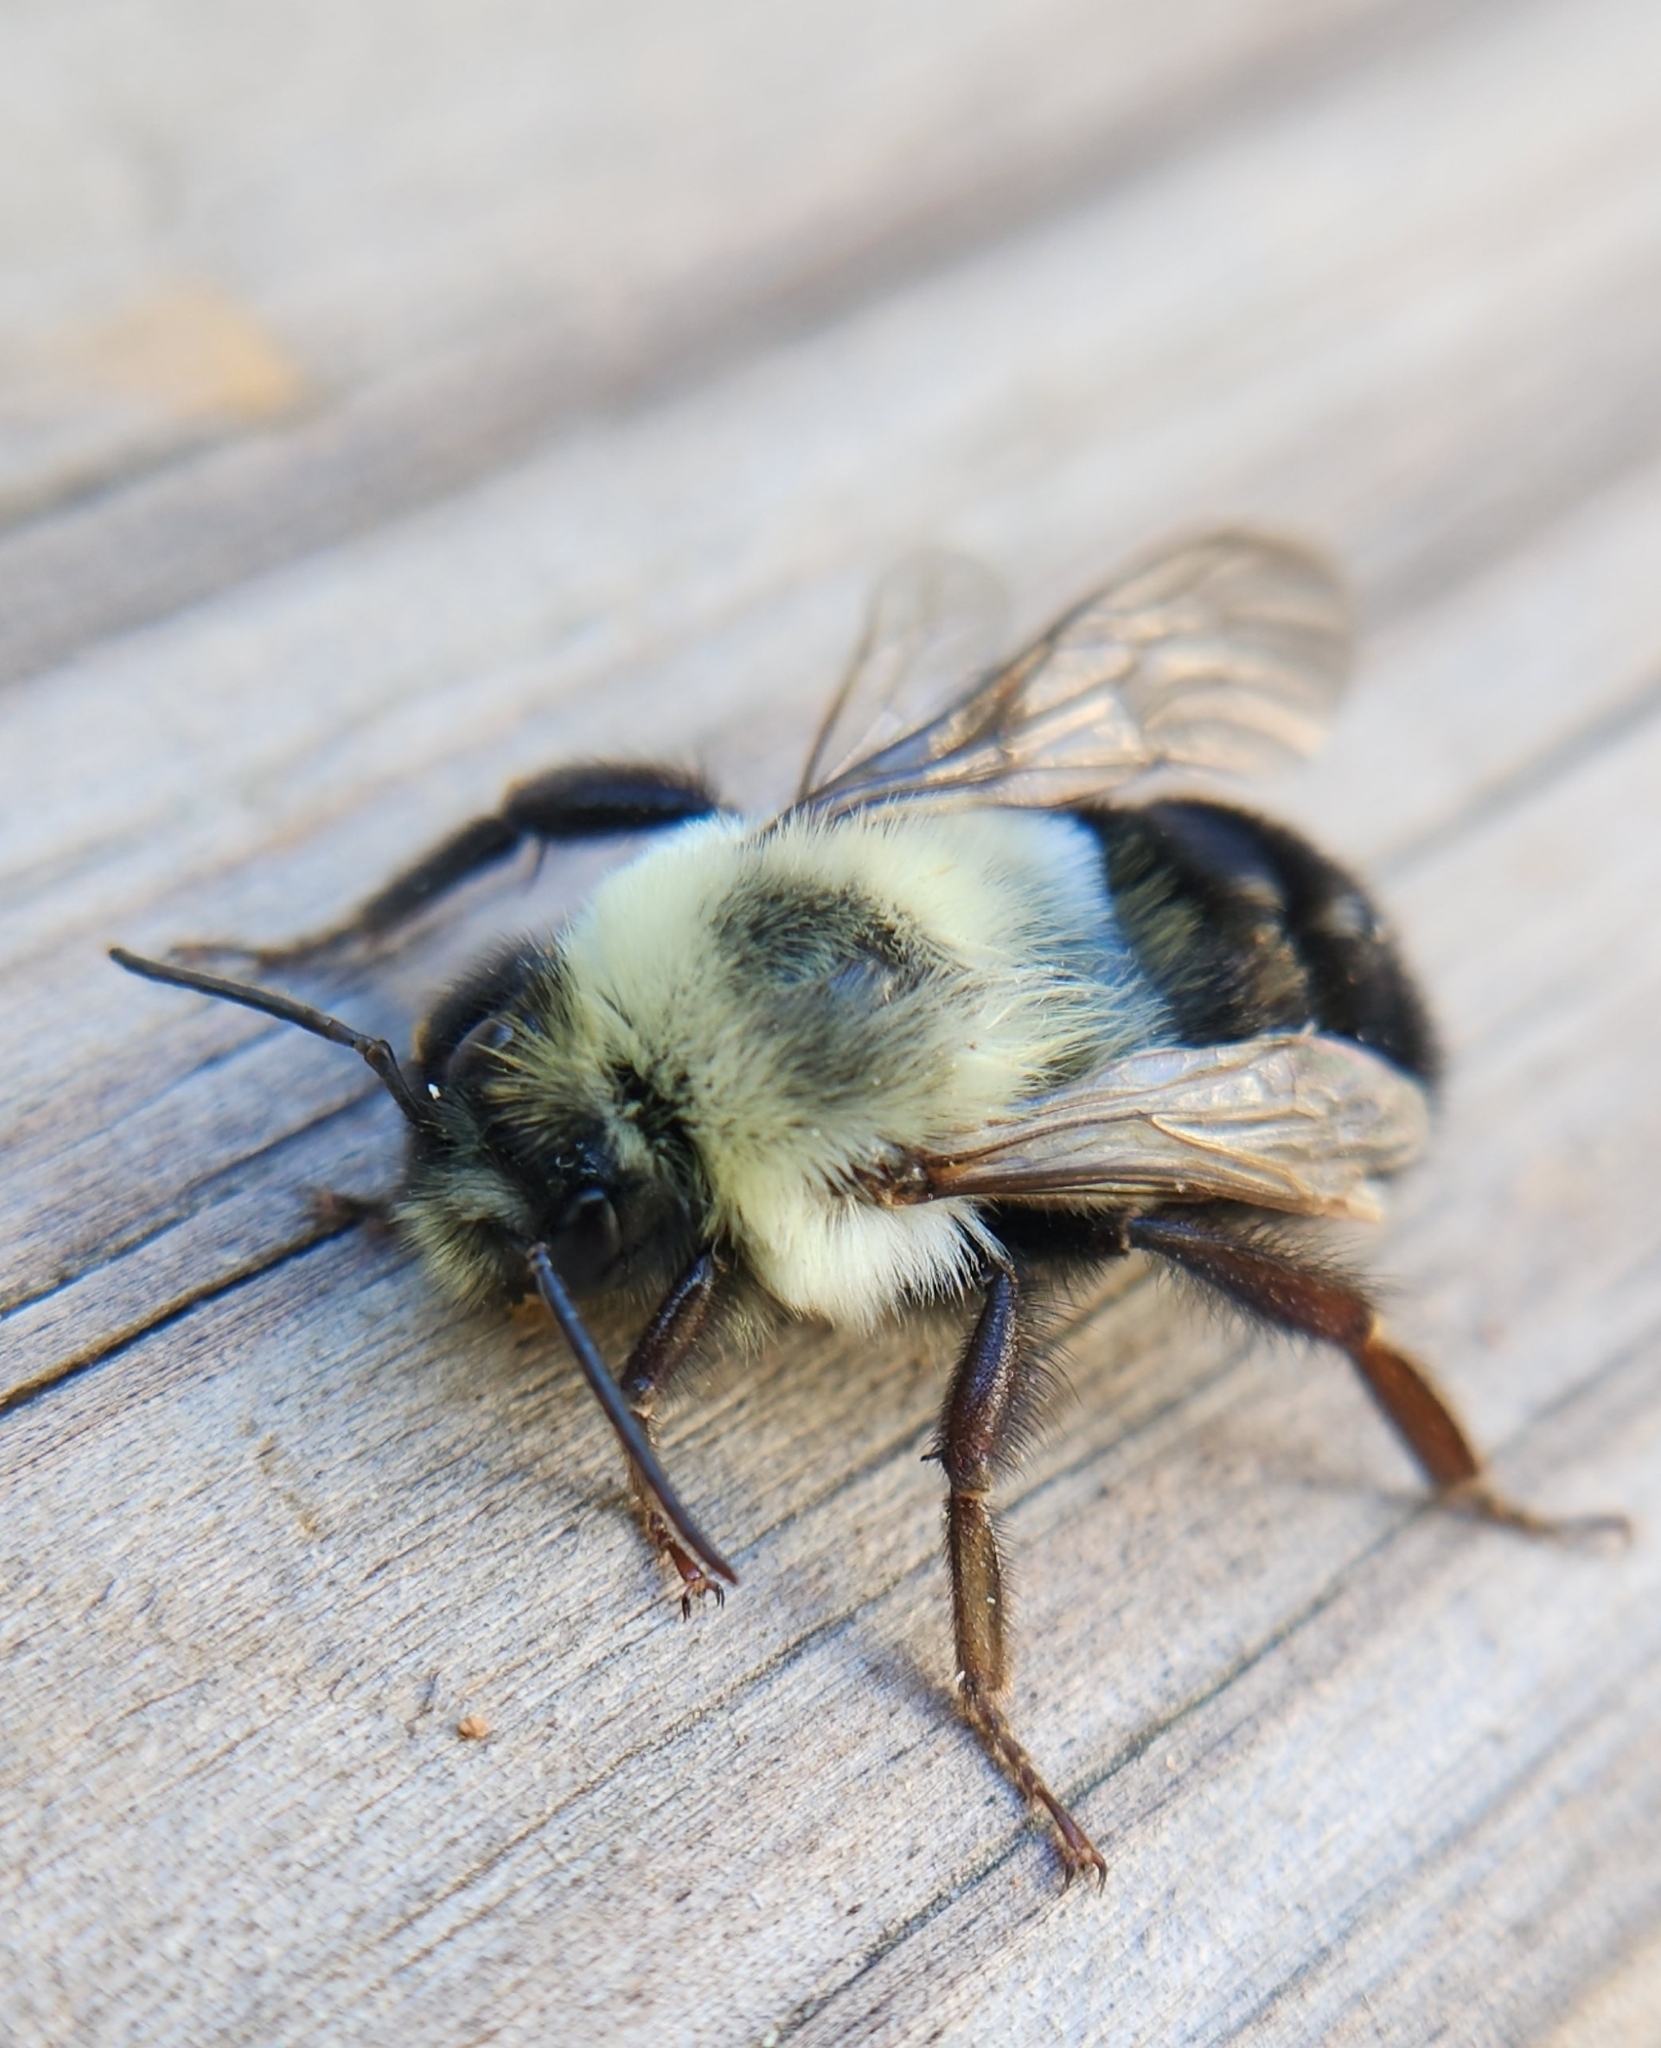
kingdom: Animalia
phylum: Arthropoda
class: Insecta
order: Hymenoptera
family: Apidae
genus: Bombus
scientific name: Bombus impatiens
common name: Common eastern bumble bee
